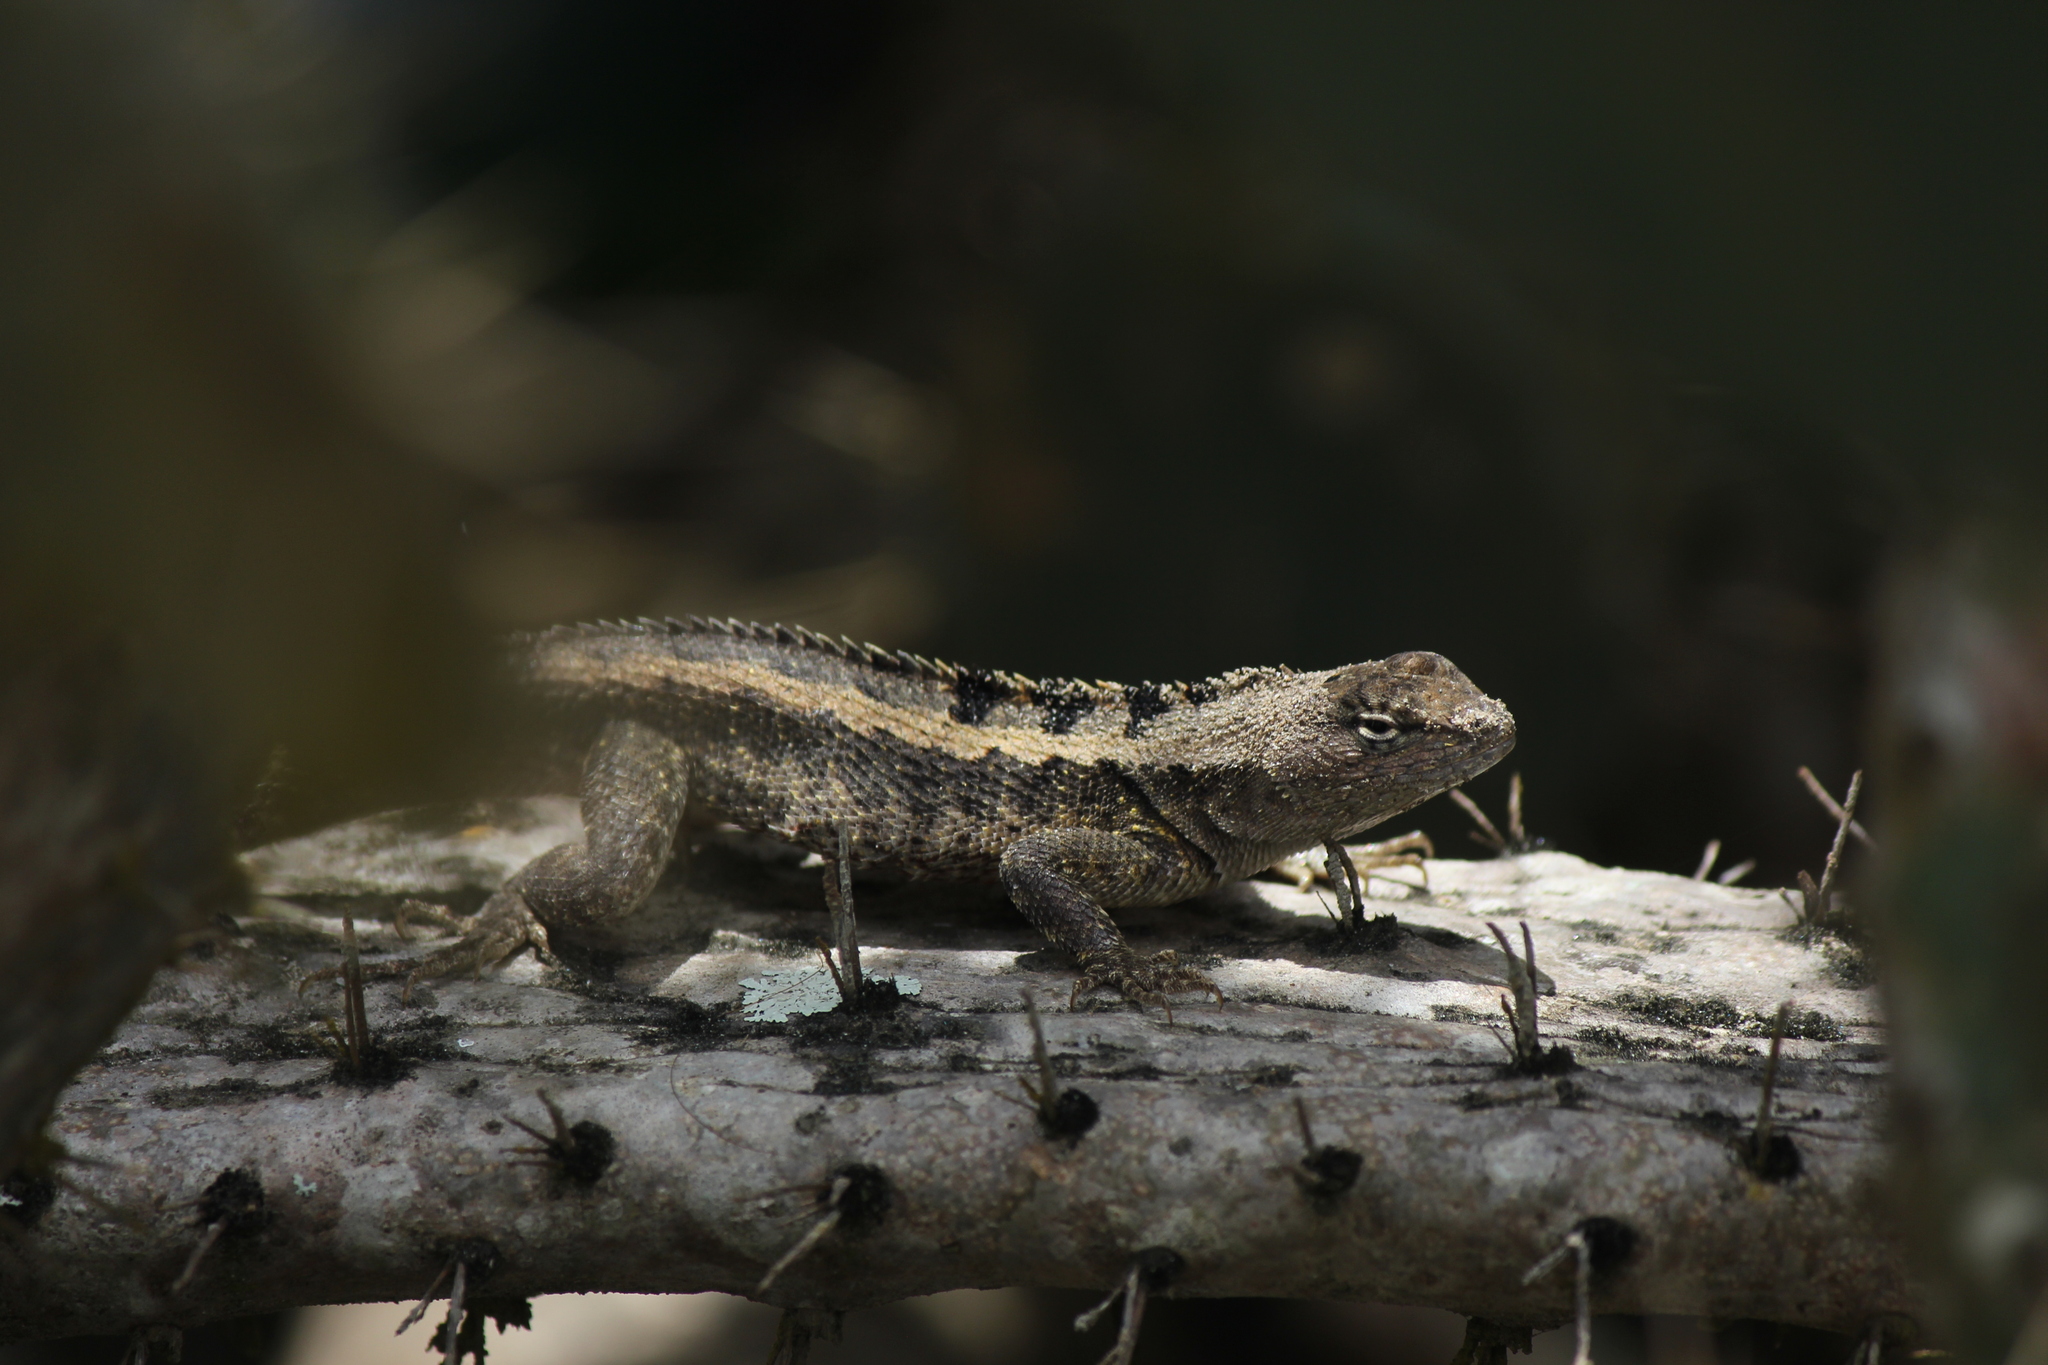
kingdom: Animalia
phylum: Chordata
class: Squamata
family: Tropiduridae
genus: Microlophus
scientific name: Microlophus occipitalis
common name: Knobbed pacific iguana
